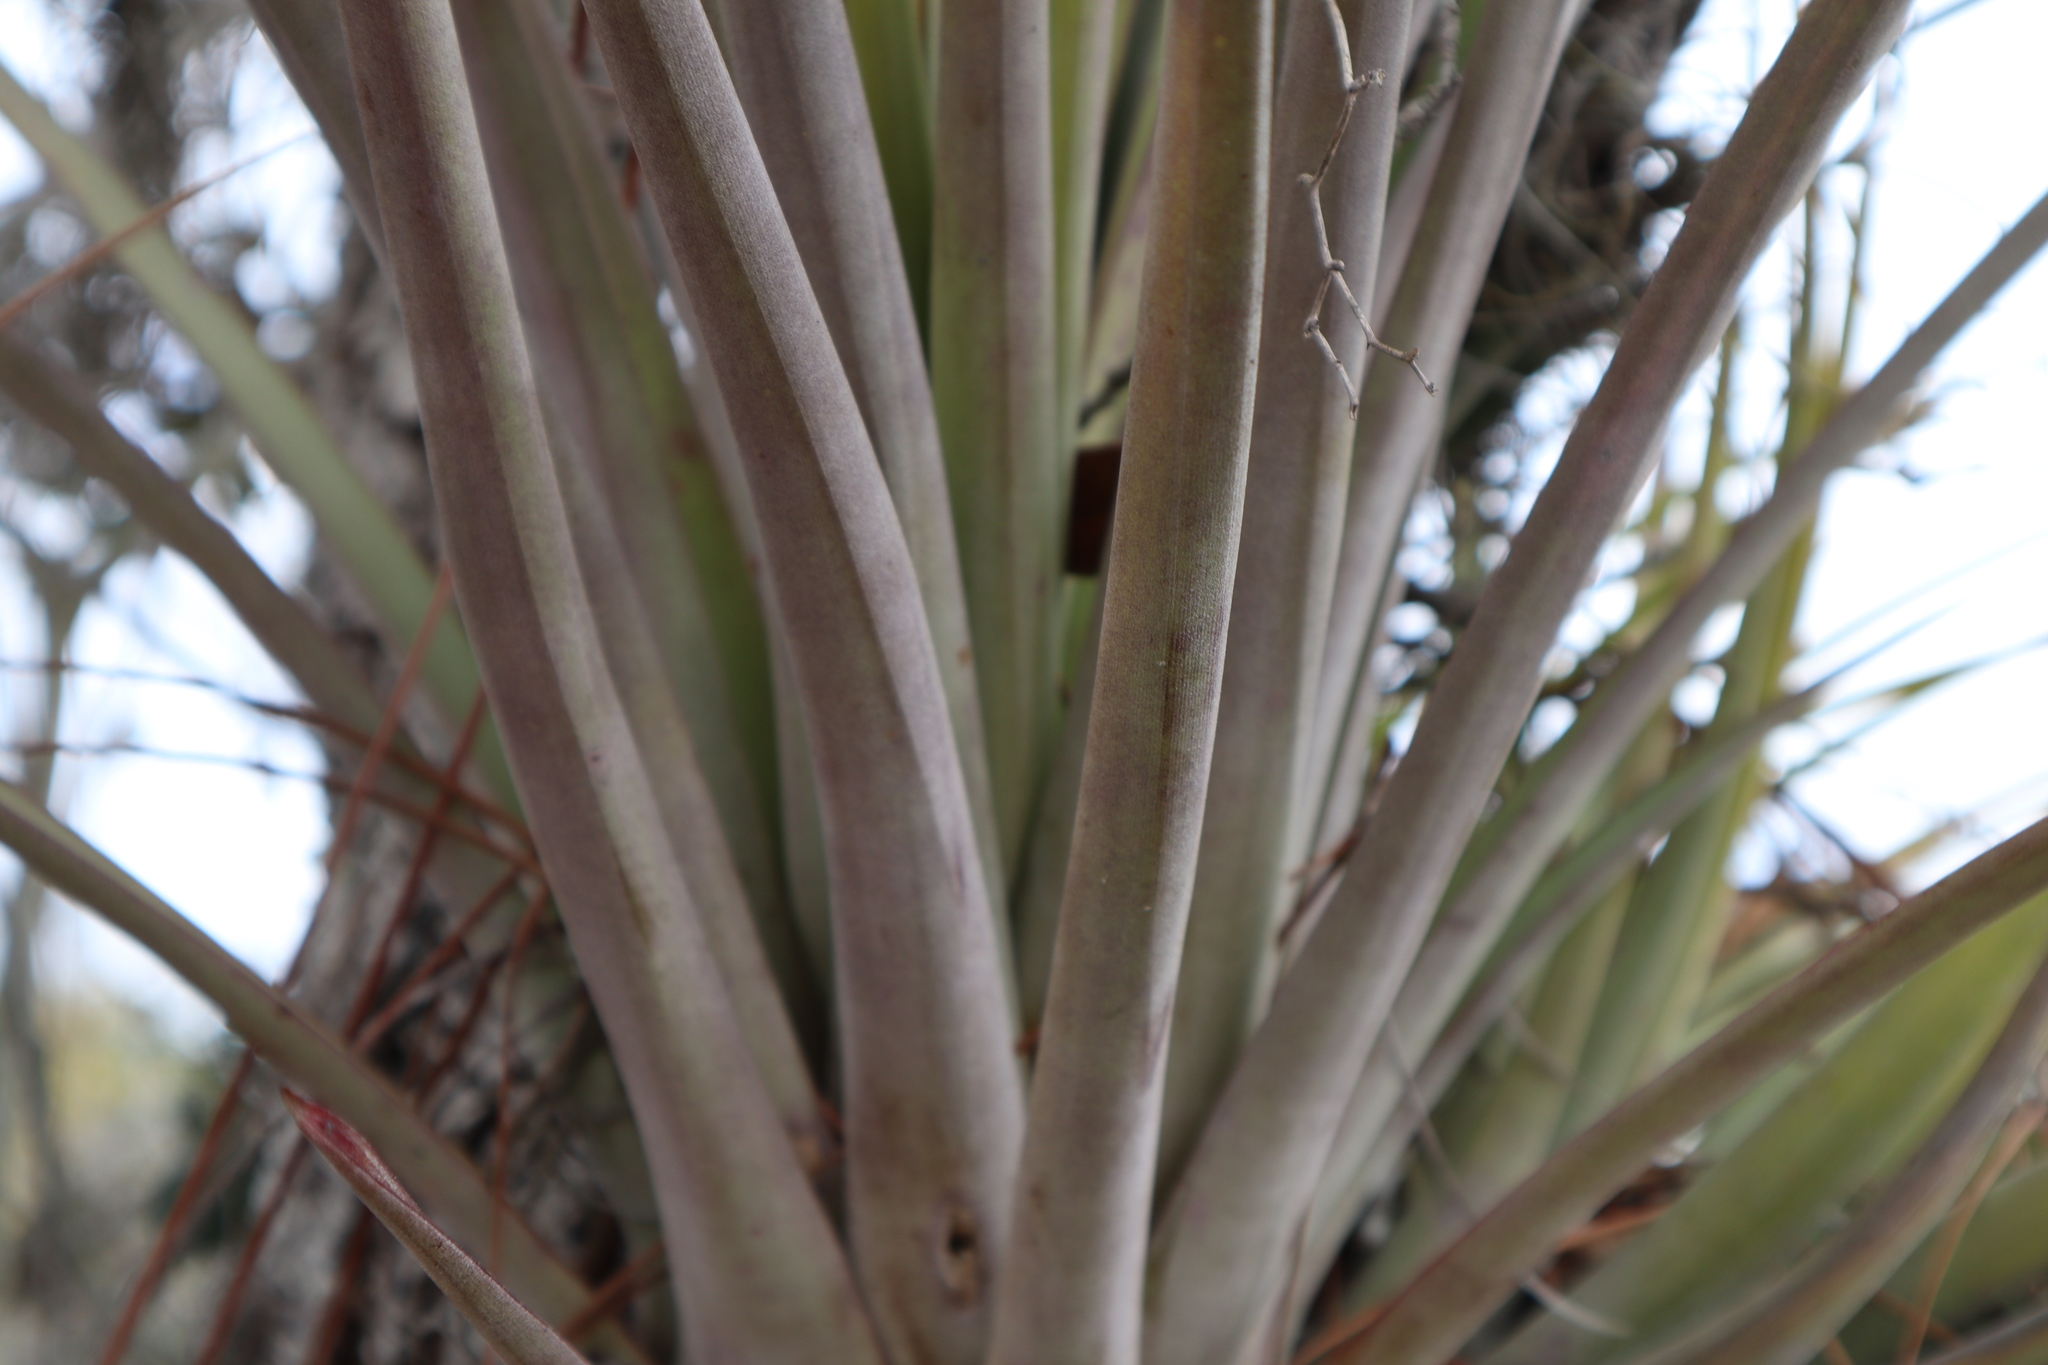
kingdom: Plantae
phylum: Tracheophyta
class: Liliopsida
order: Poales
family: Bromeliaceae
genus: Tillandsia
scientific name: Tillandsia fasciculata
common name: Giant airplant
